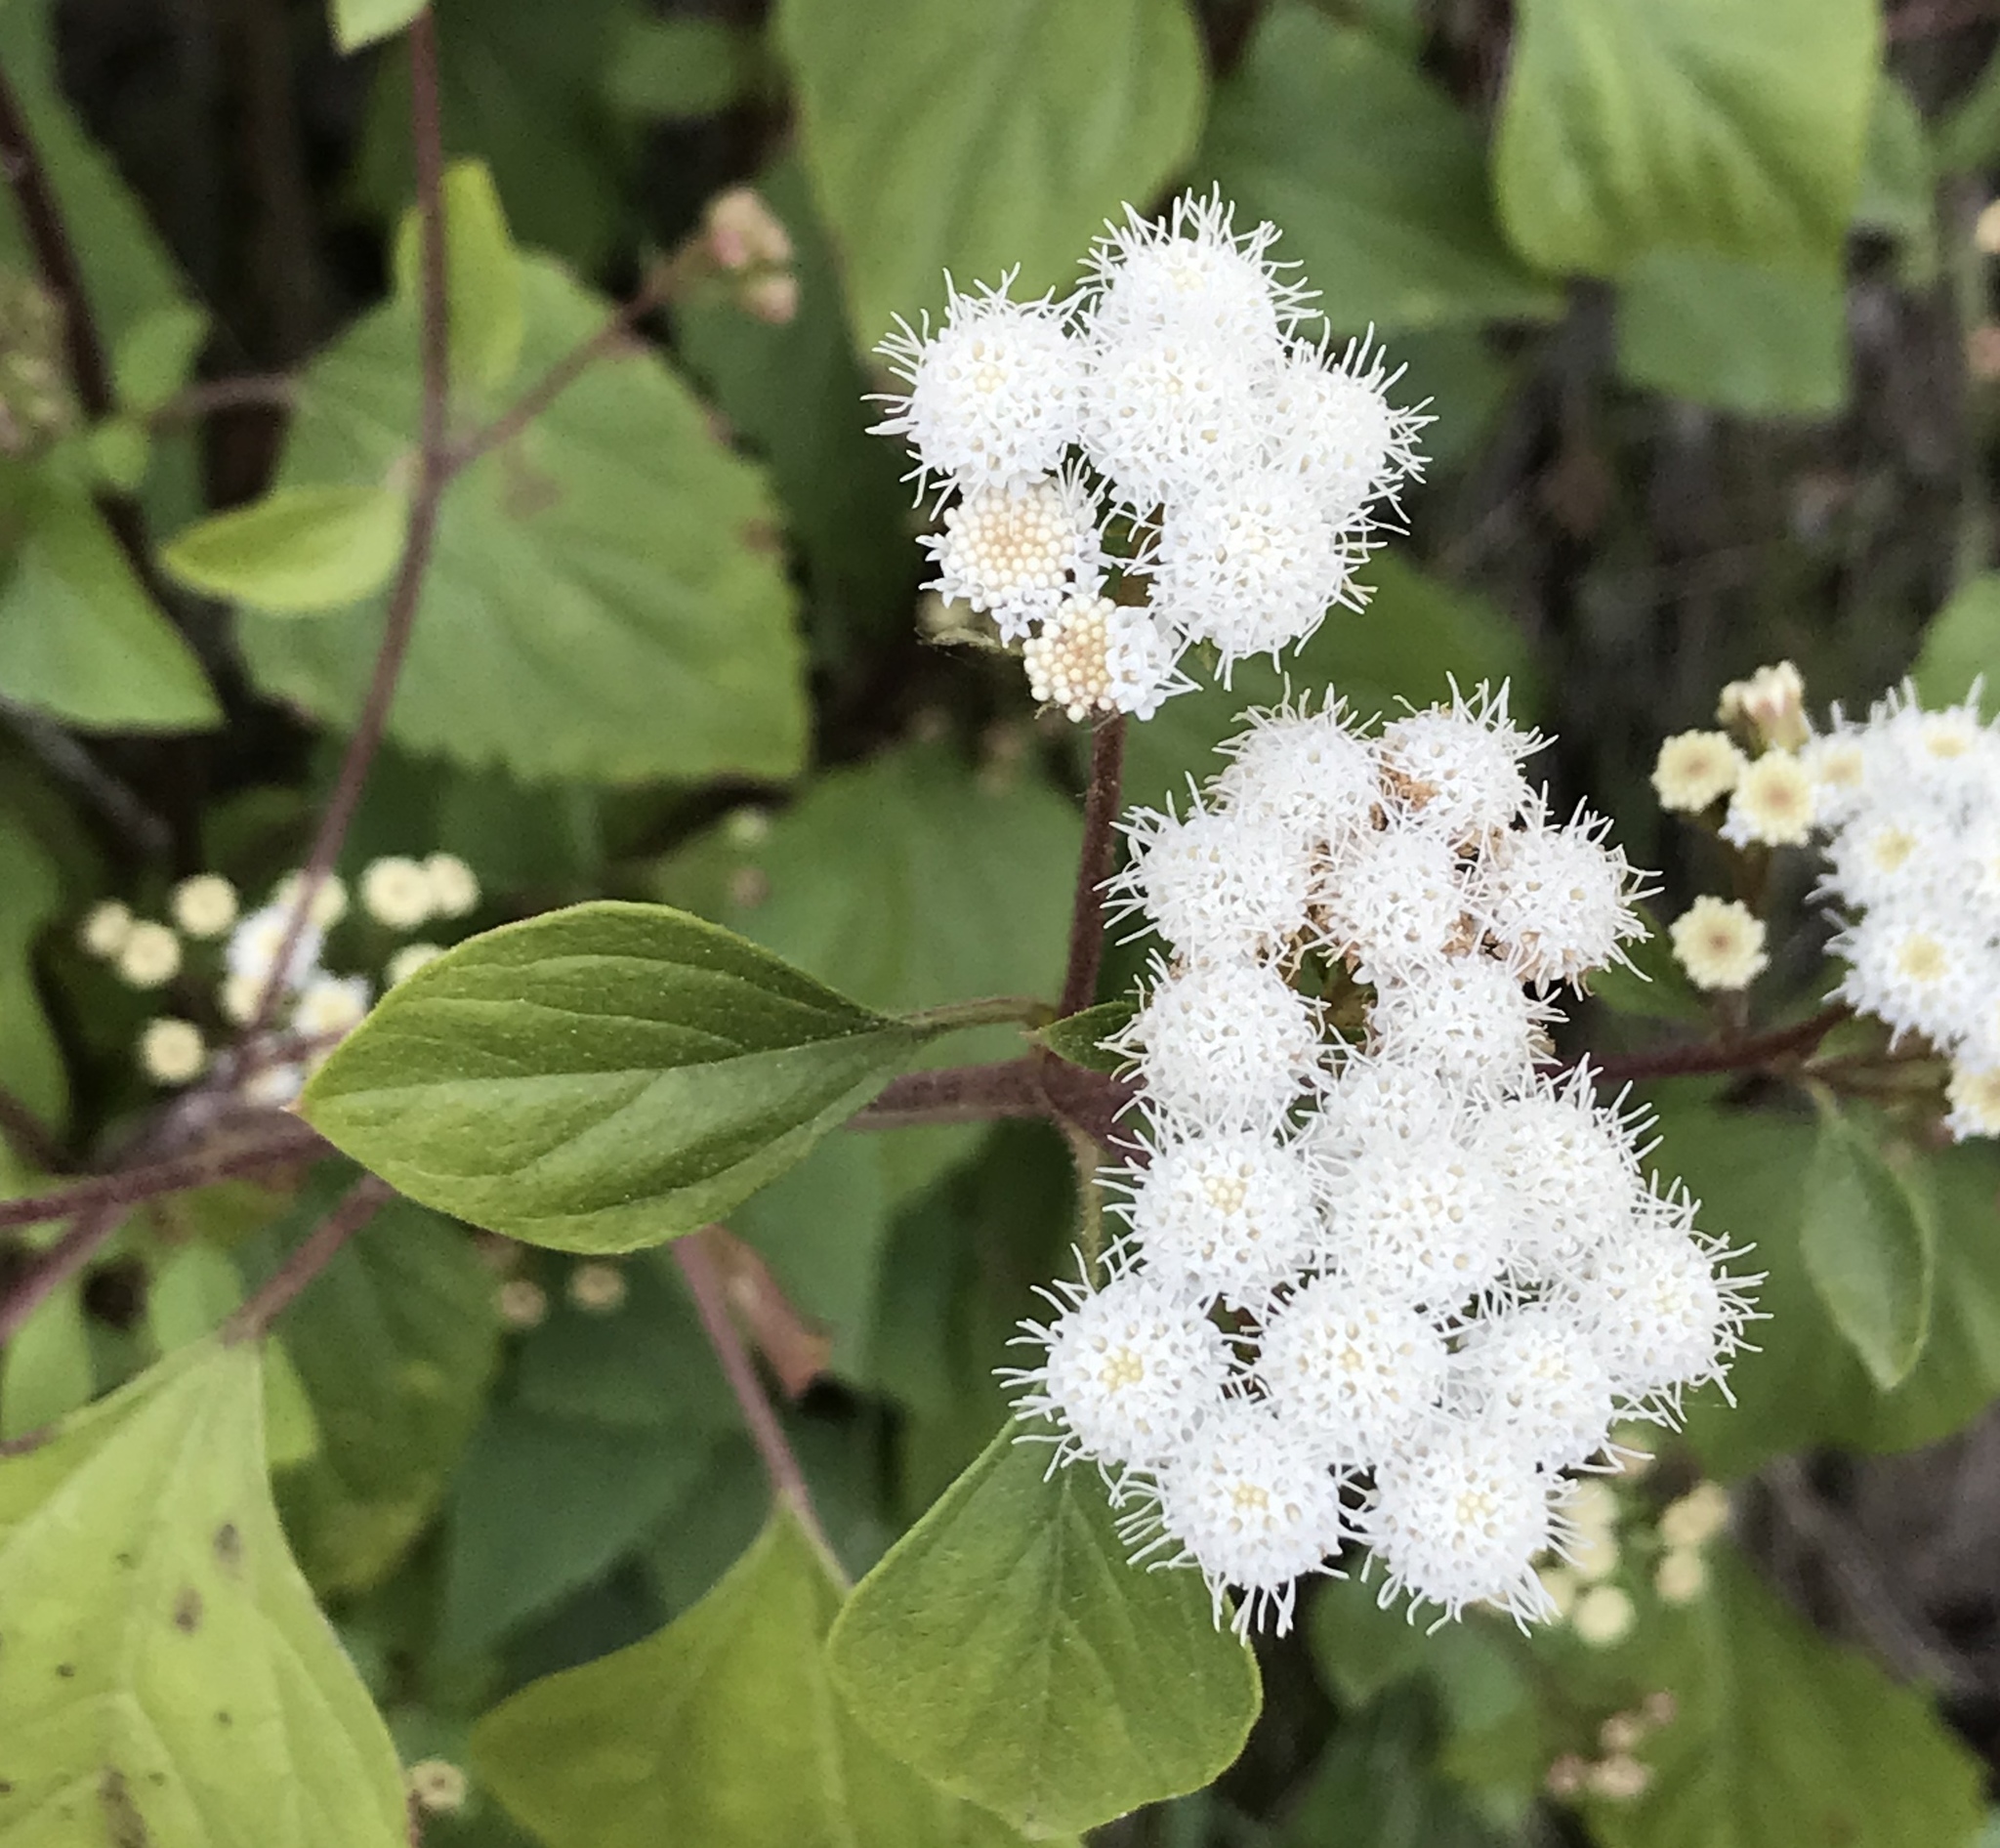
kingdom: Plantae
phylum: Tracheophyta
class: Magnoliopsida
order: Asterales
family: Asteraceae
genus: Ageratina
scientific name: Ageratina adenophora
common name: Sticky snakeroot
